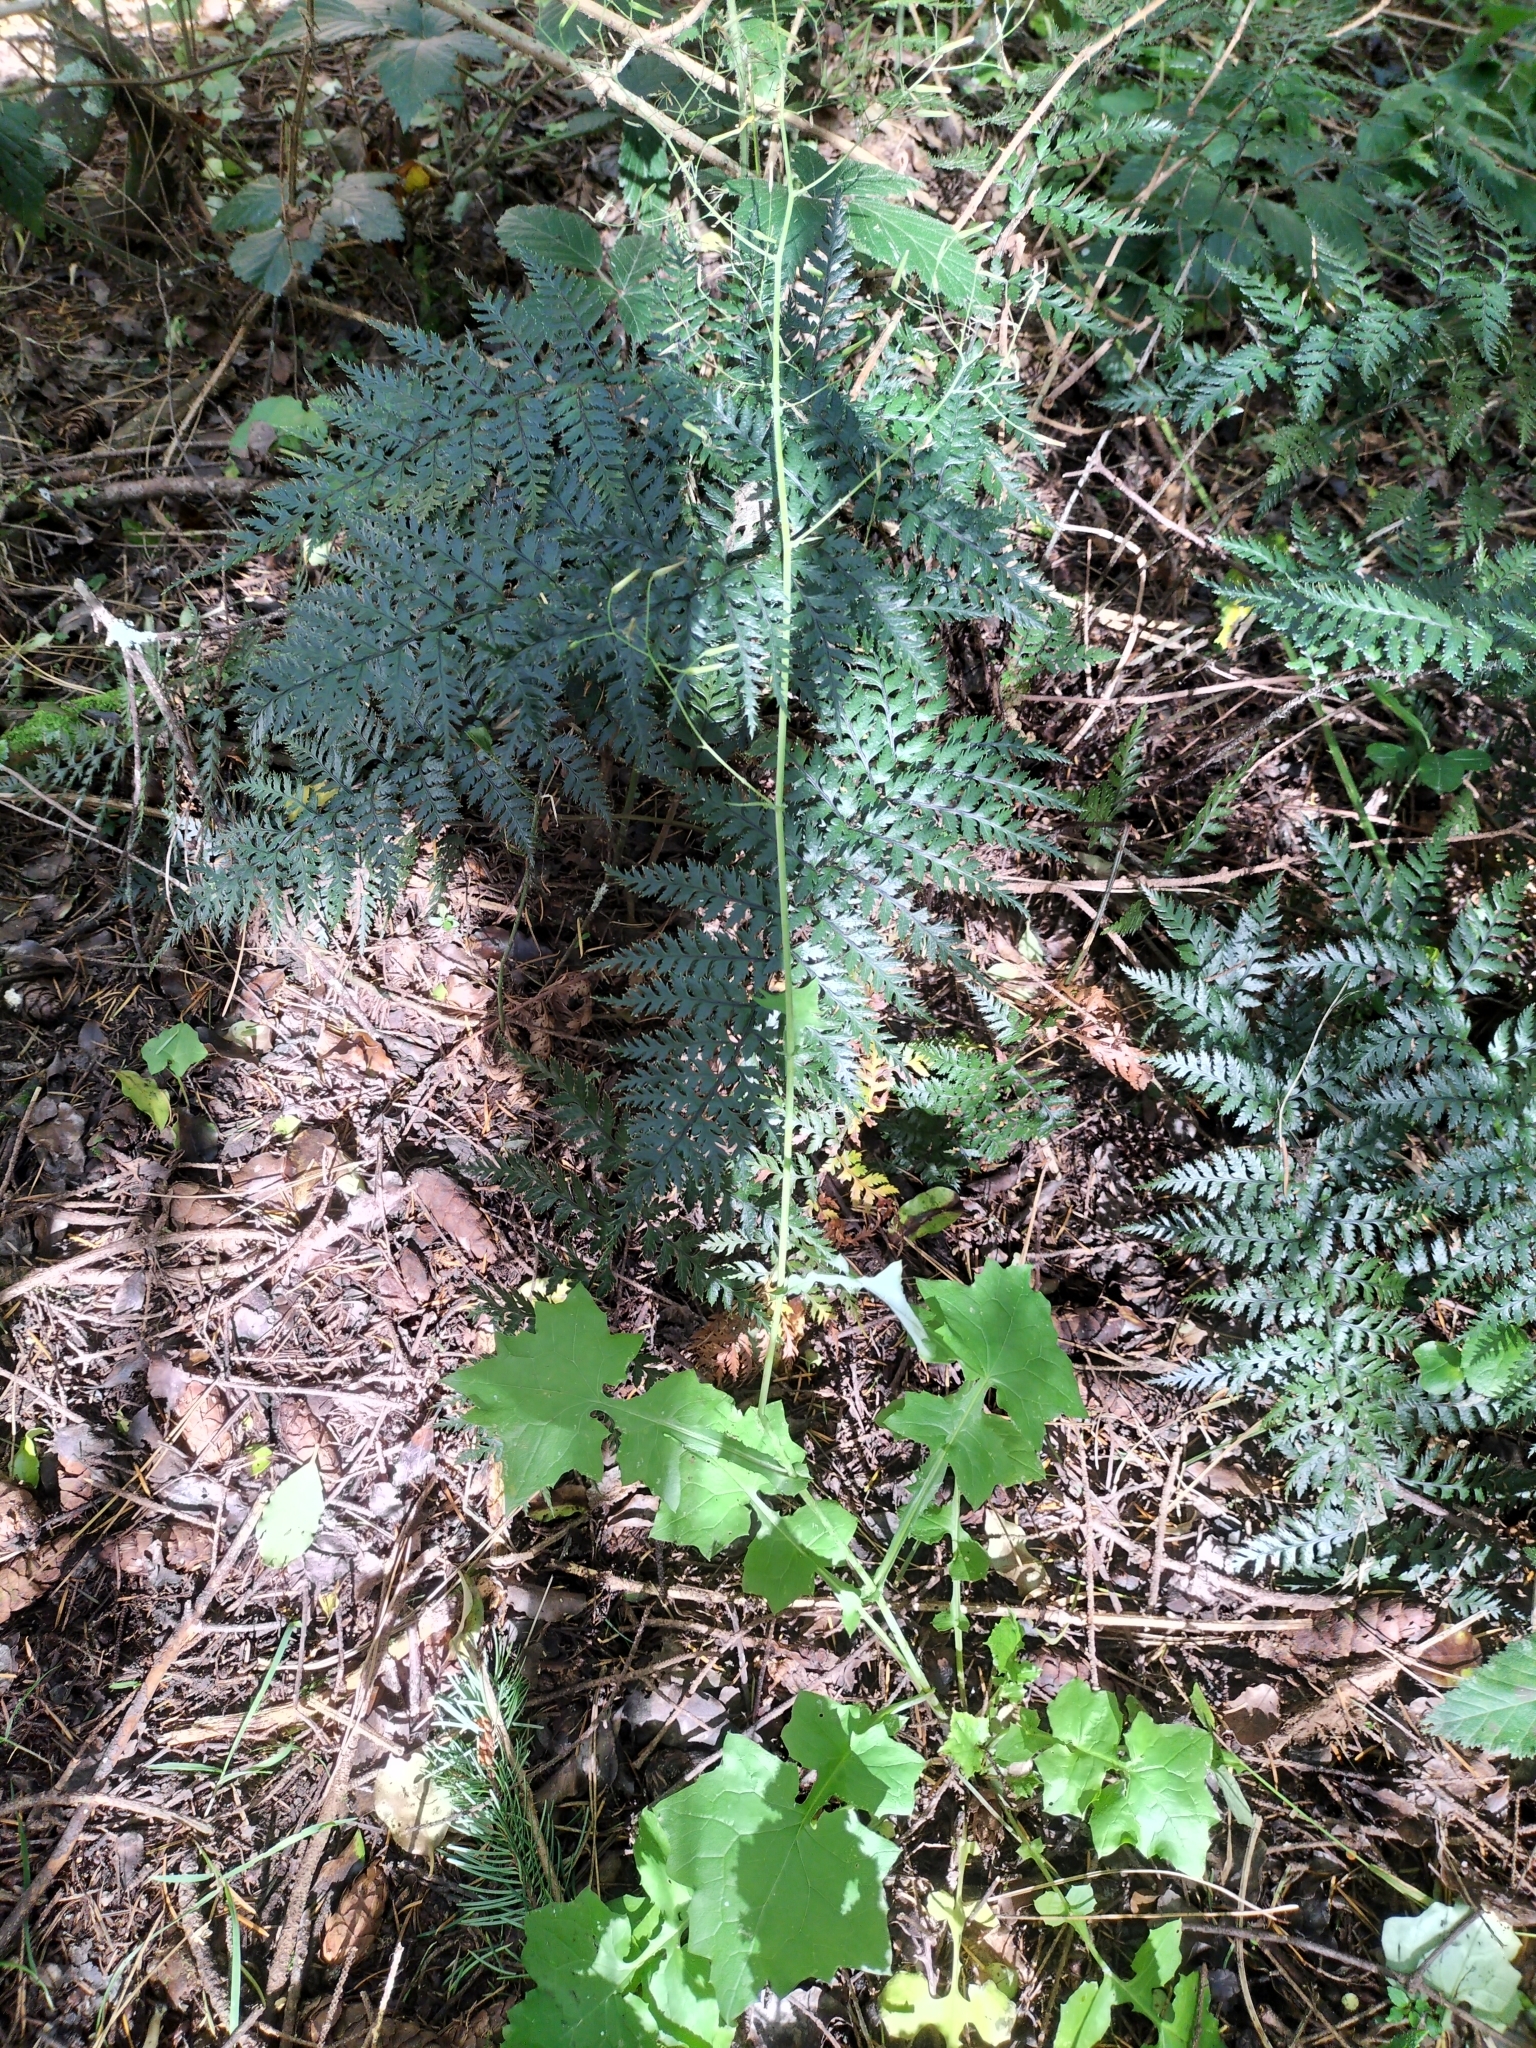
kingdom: Plantae
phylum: Tracheophyta
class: Magnoliopsida
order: Asterales
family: Asteraceae
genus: Mycelis
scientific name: Mycelis muralis
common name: Wall lettuce
